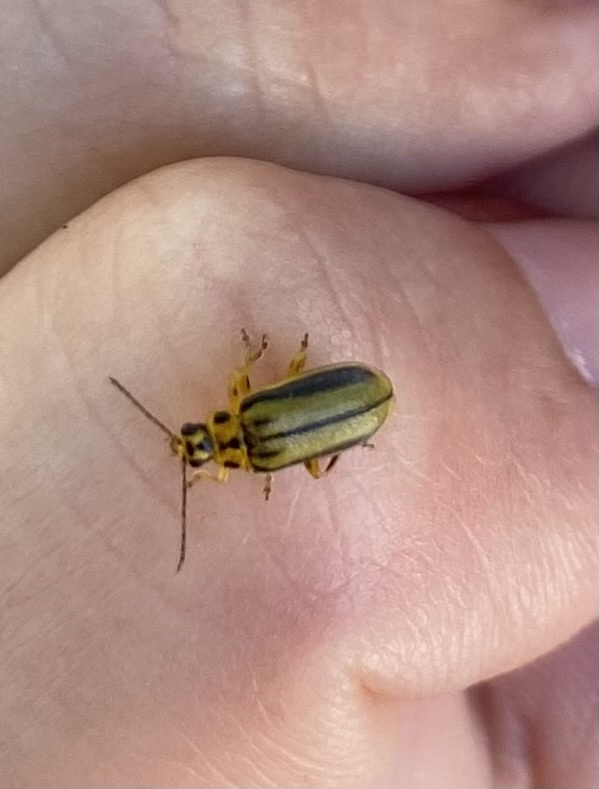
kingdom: Animalia
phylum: Arthropoda
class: Insecta
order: Coleoptera
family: Chrysomelidae
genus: Xanthogaleruca
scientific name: Xanthogaleruca luteola
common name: Elm leaf beetle
